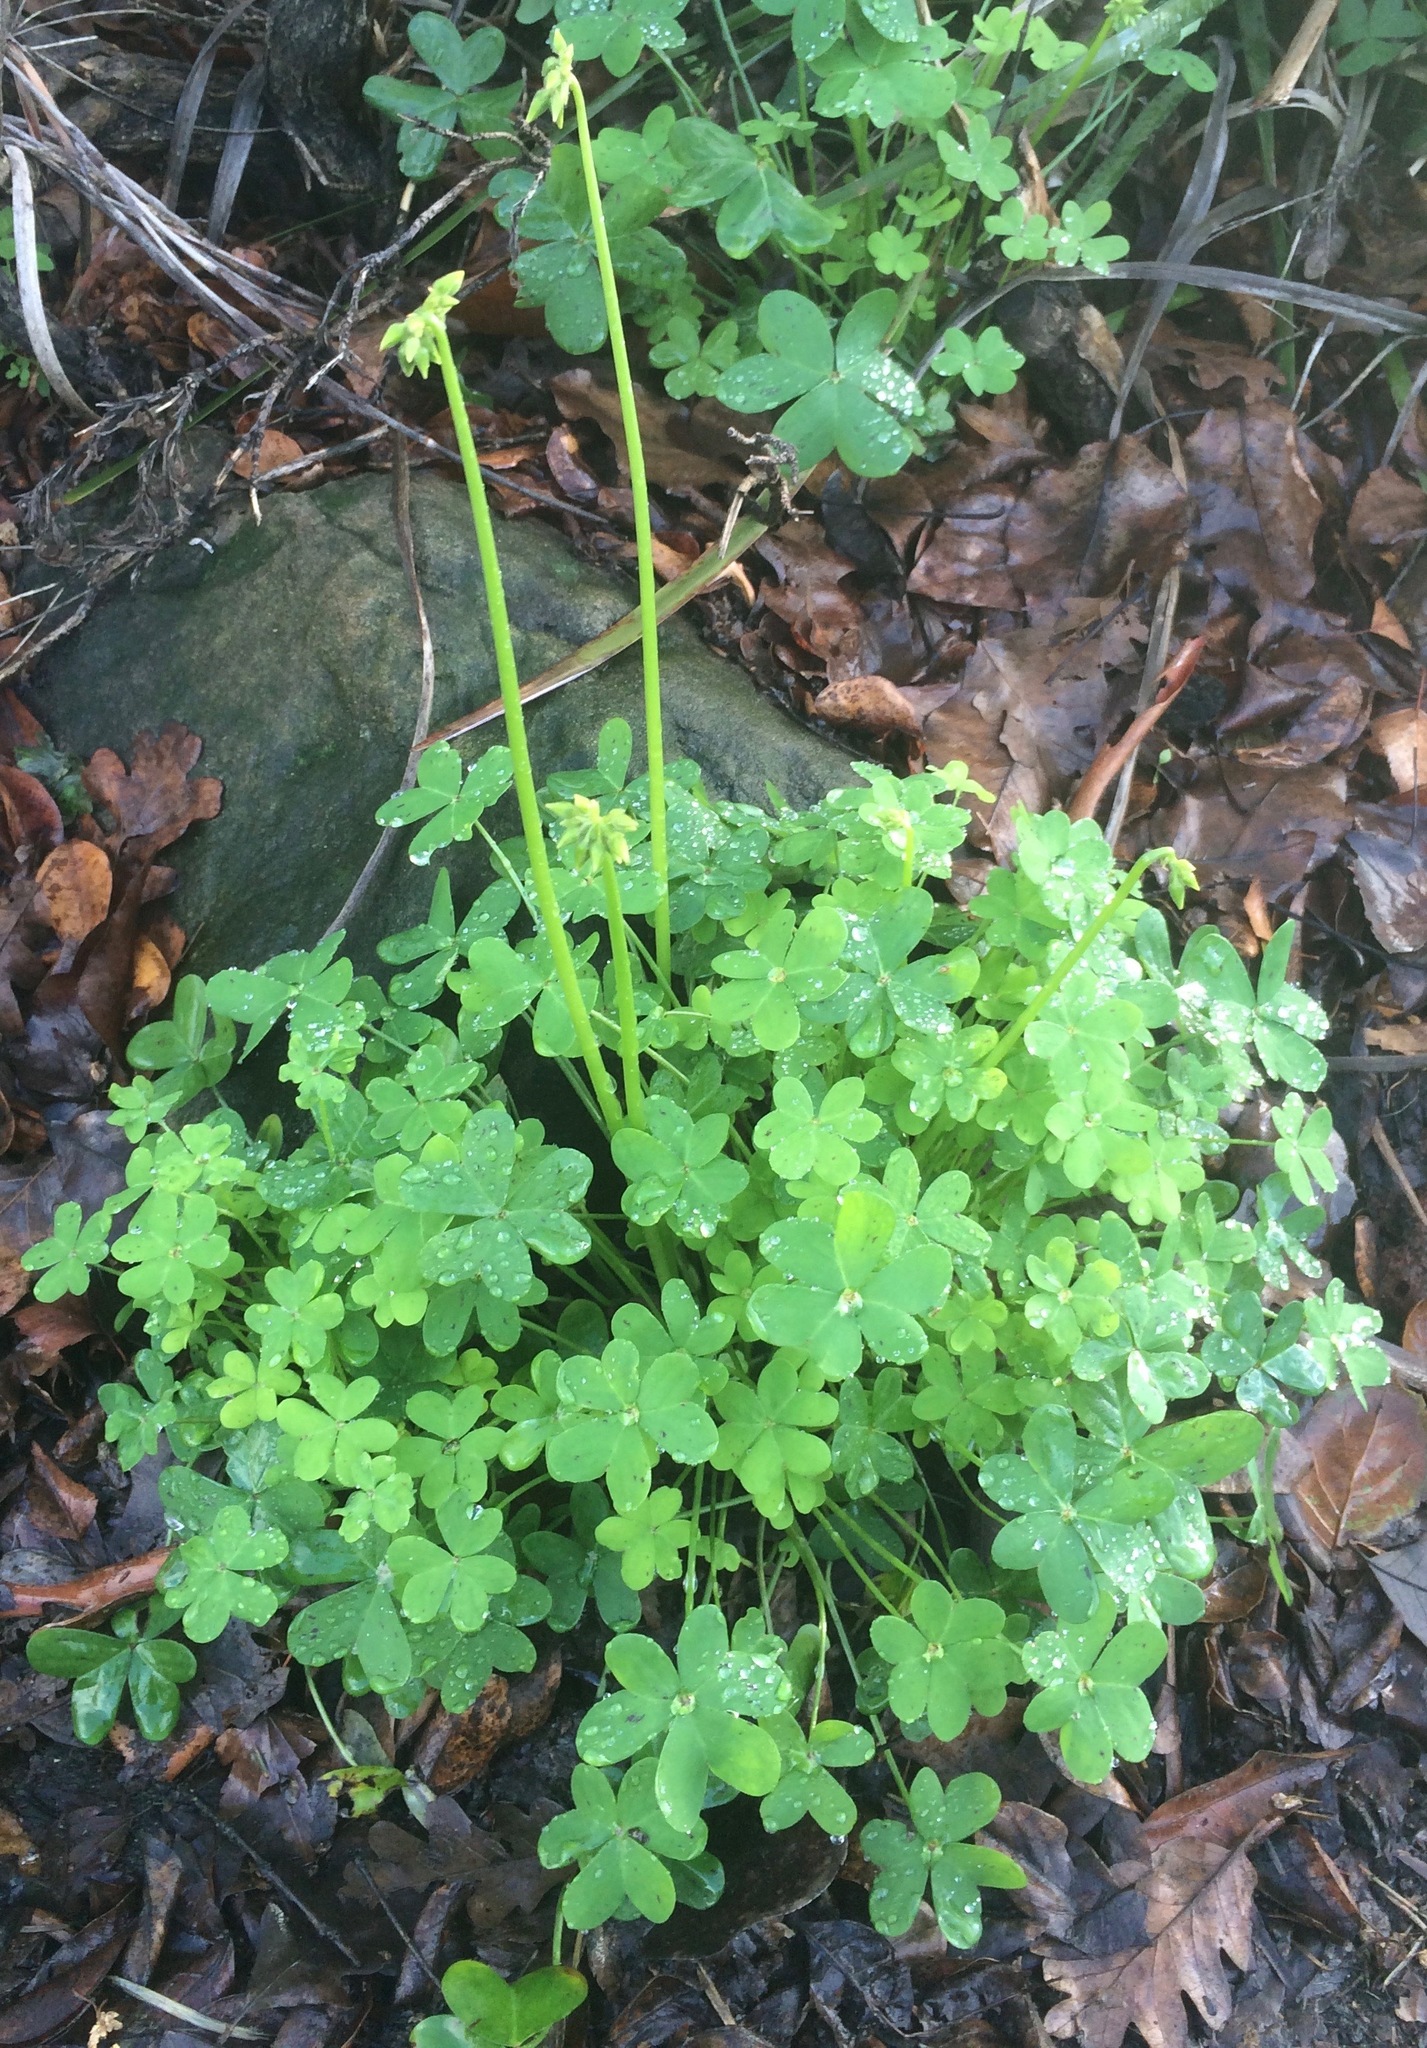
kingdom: Plantae
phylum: Tracheophyta
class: Magnoliopsida
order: Oxalidales
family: Oxalidaceae
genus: Oxalis
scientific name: Oxalis pes-caprae
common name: Bermuda-buttercup
